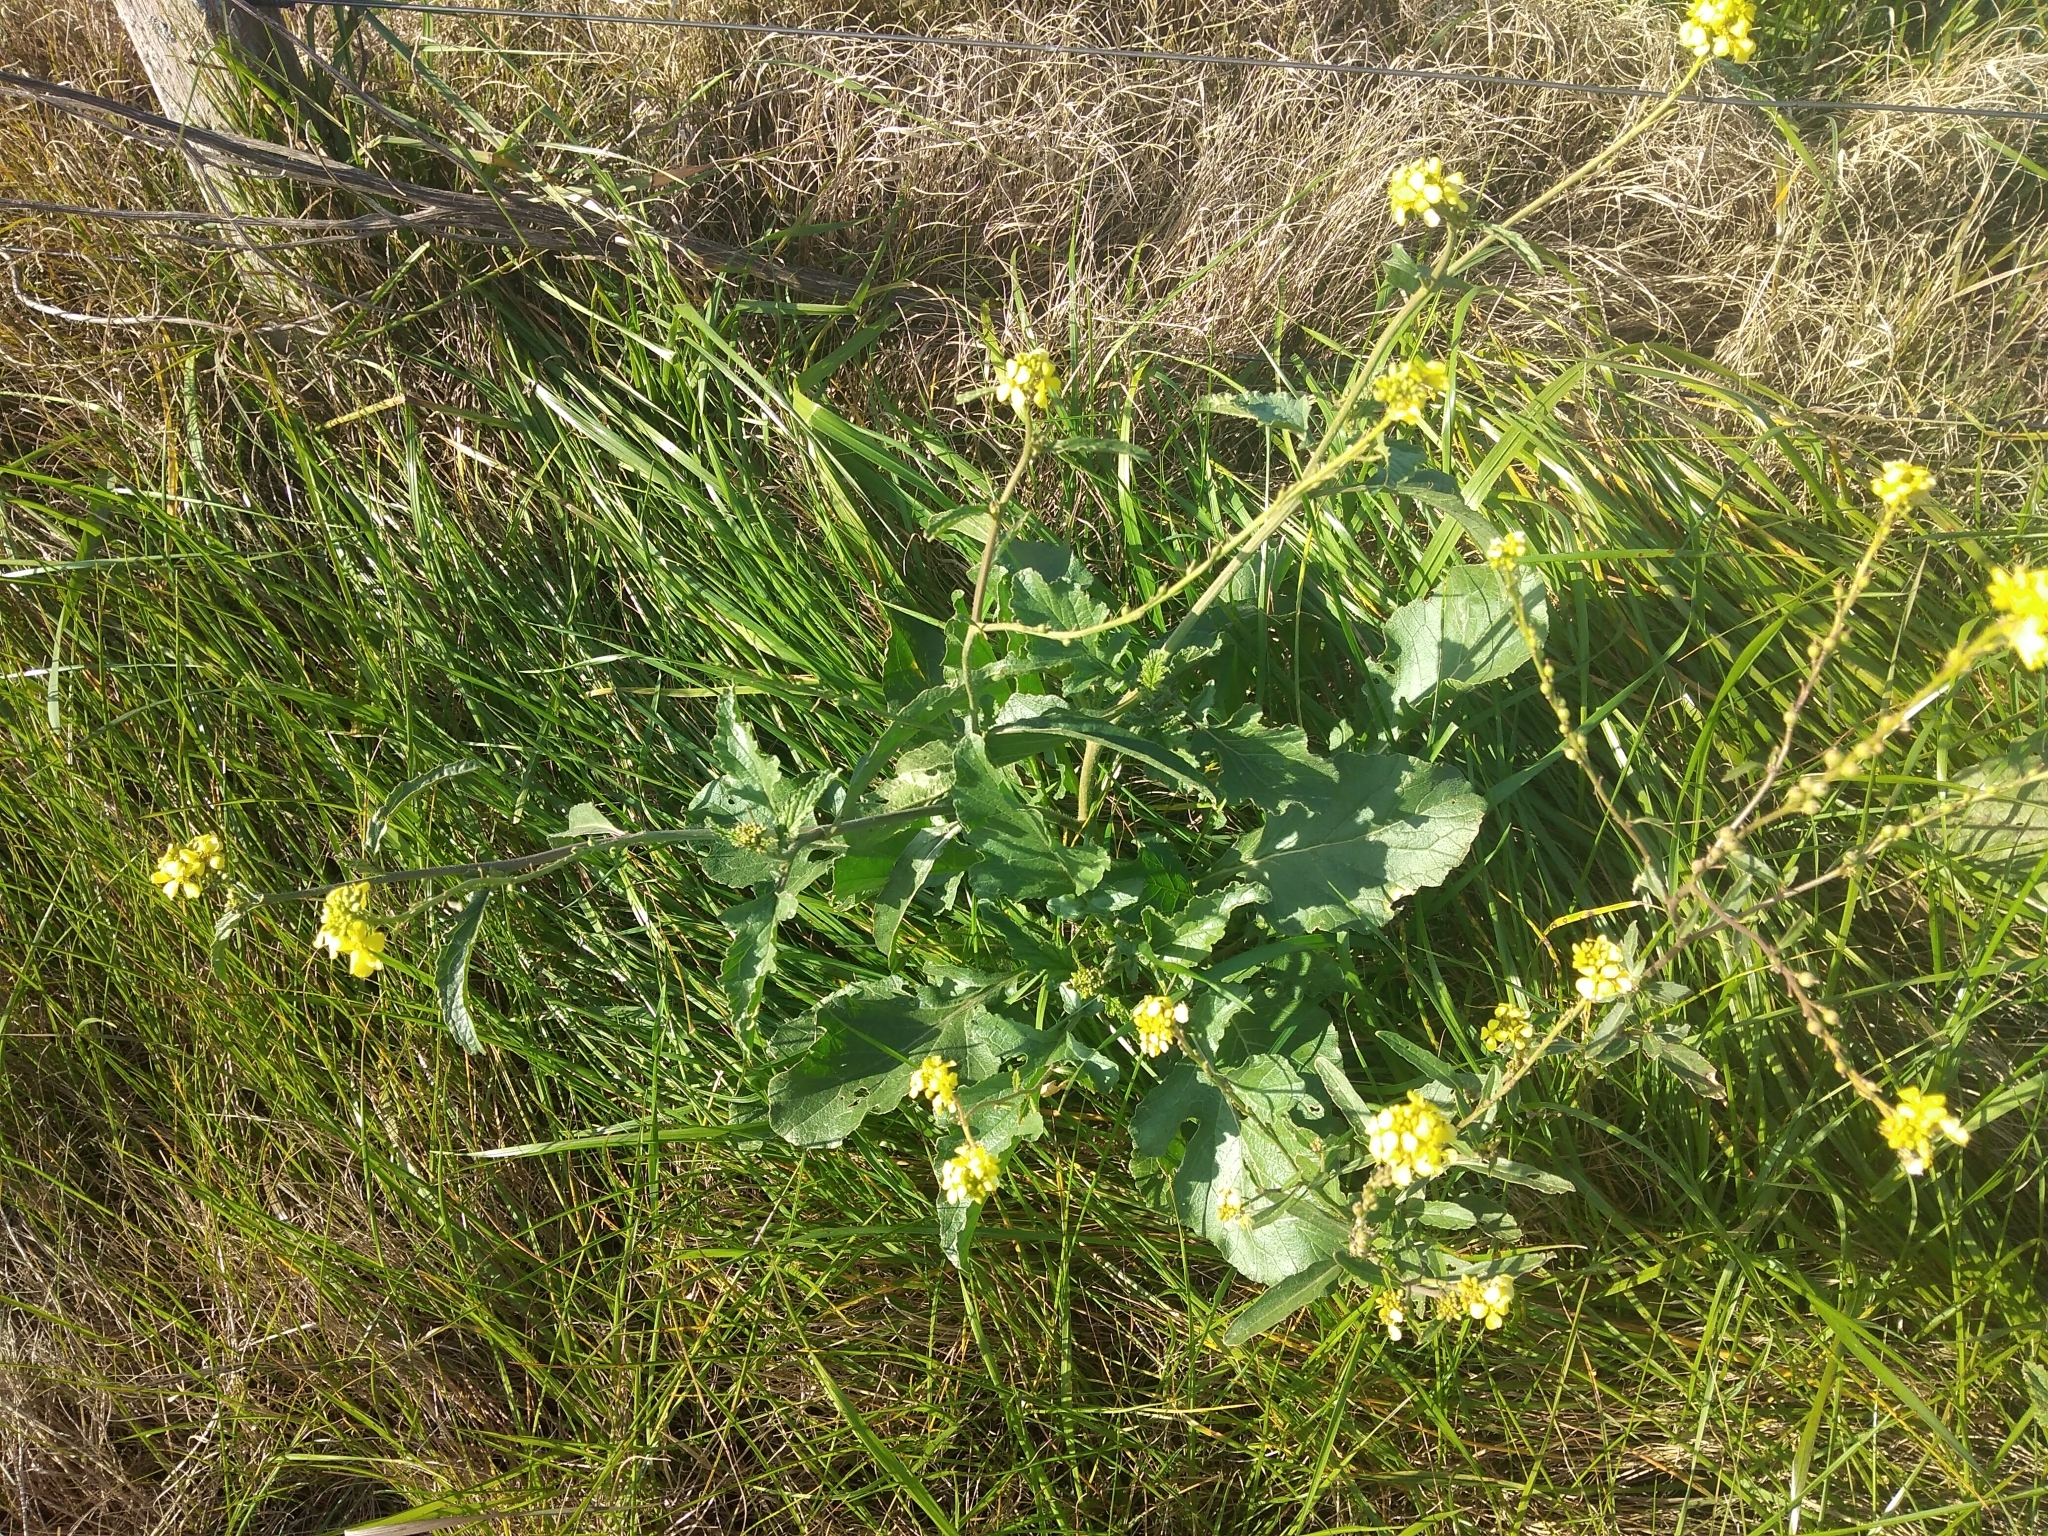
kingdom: Plantae
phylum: Tracheophyta
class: Magnoliopsida
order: Brassicales
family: Brassicaceae
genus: Rapistrum
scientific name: Rapistrum rugosum
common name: Annual bastardcabbage
